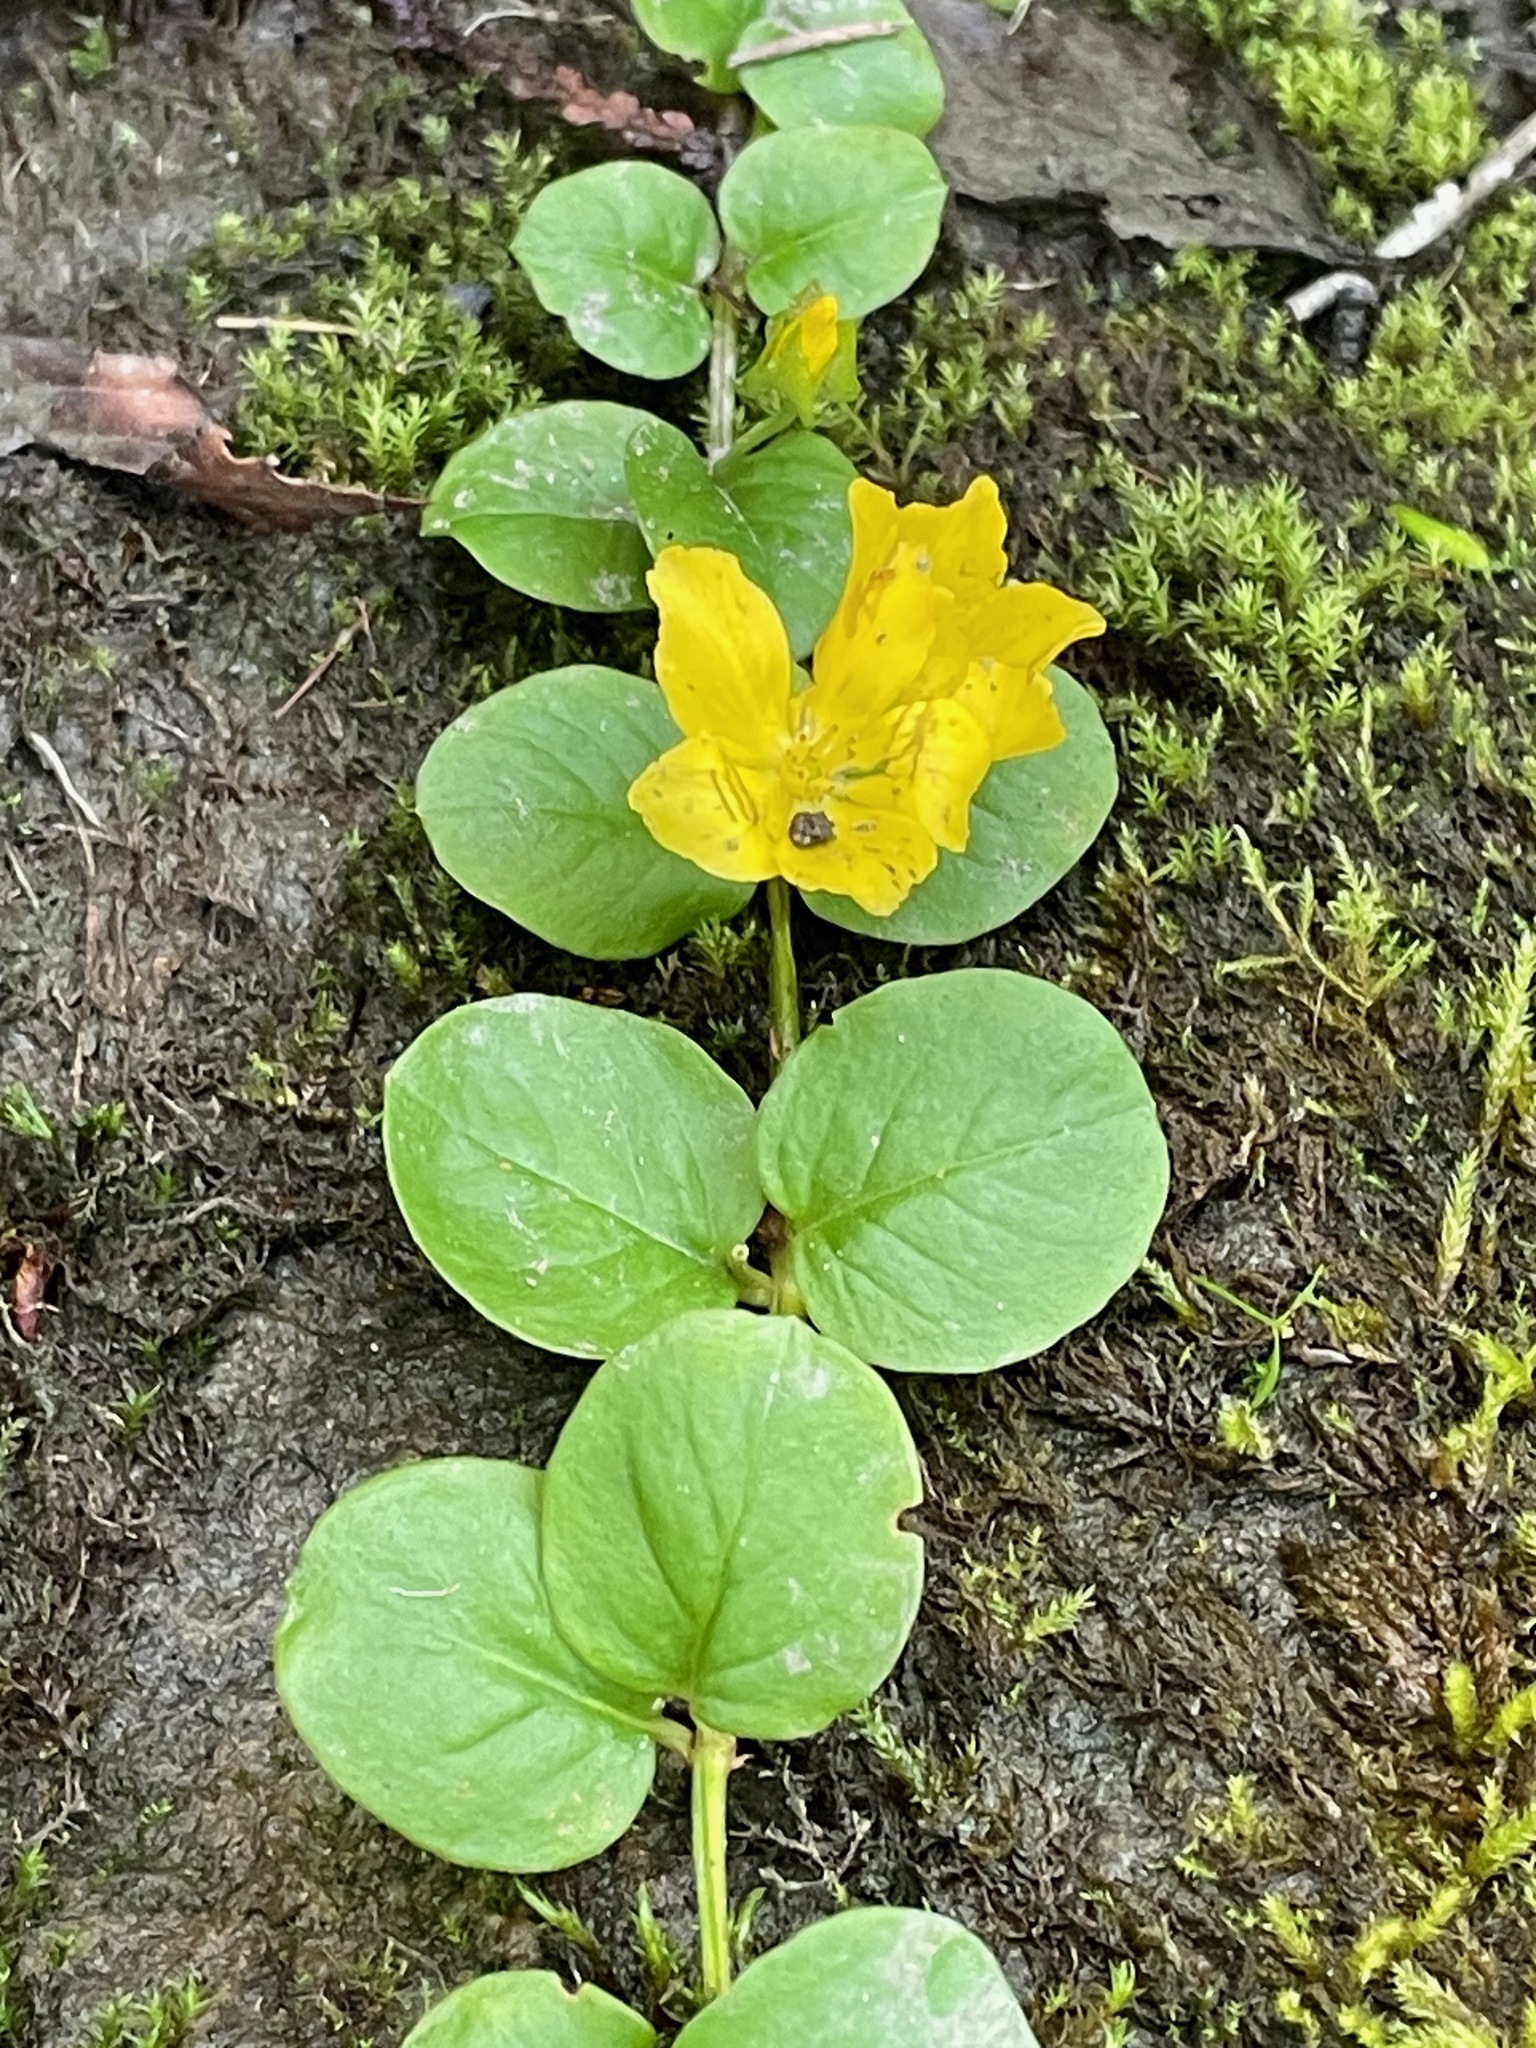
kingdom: Plantae
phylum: Tracheophyta
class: Magnoliopsida
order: Ericales
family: Primulaceae
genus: Lysimachia
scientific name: Lysimachia nummularia
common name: Moneywort
